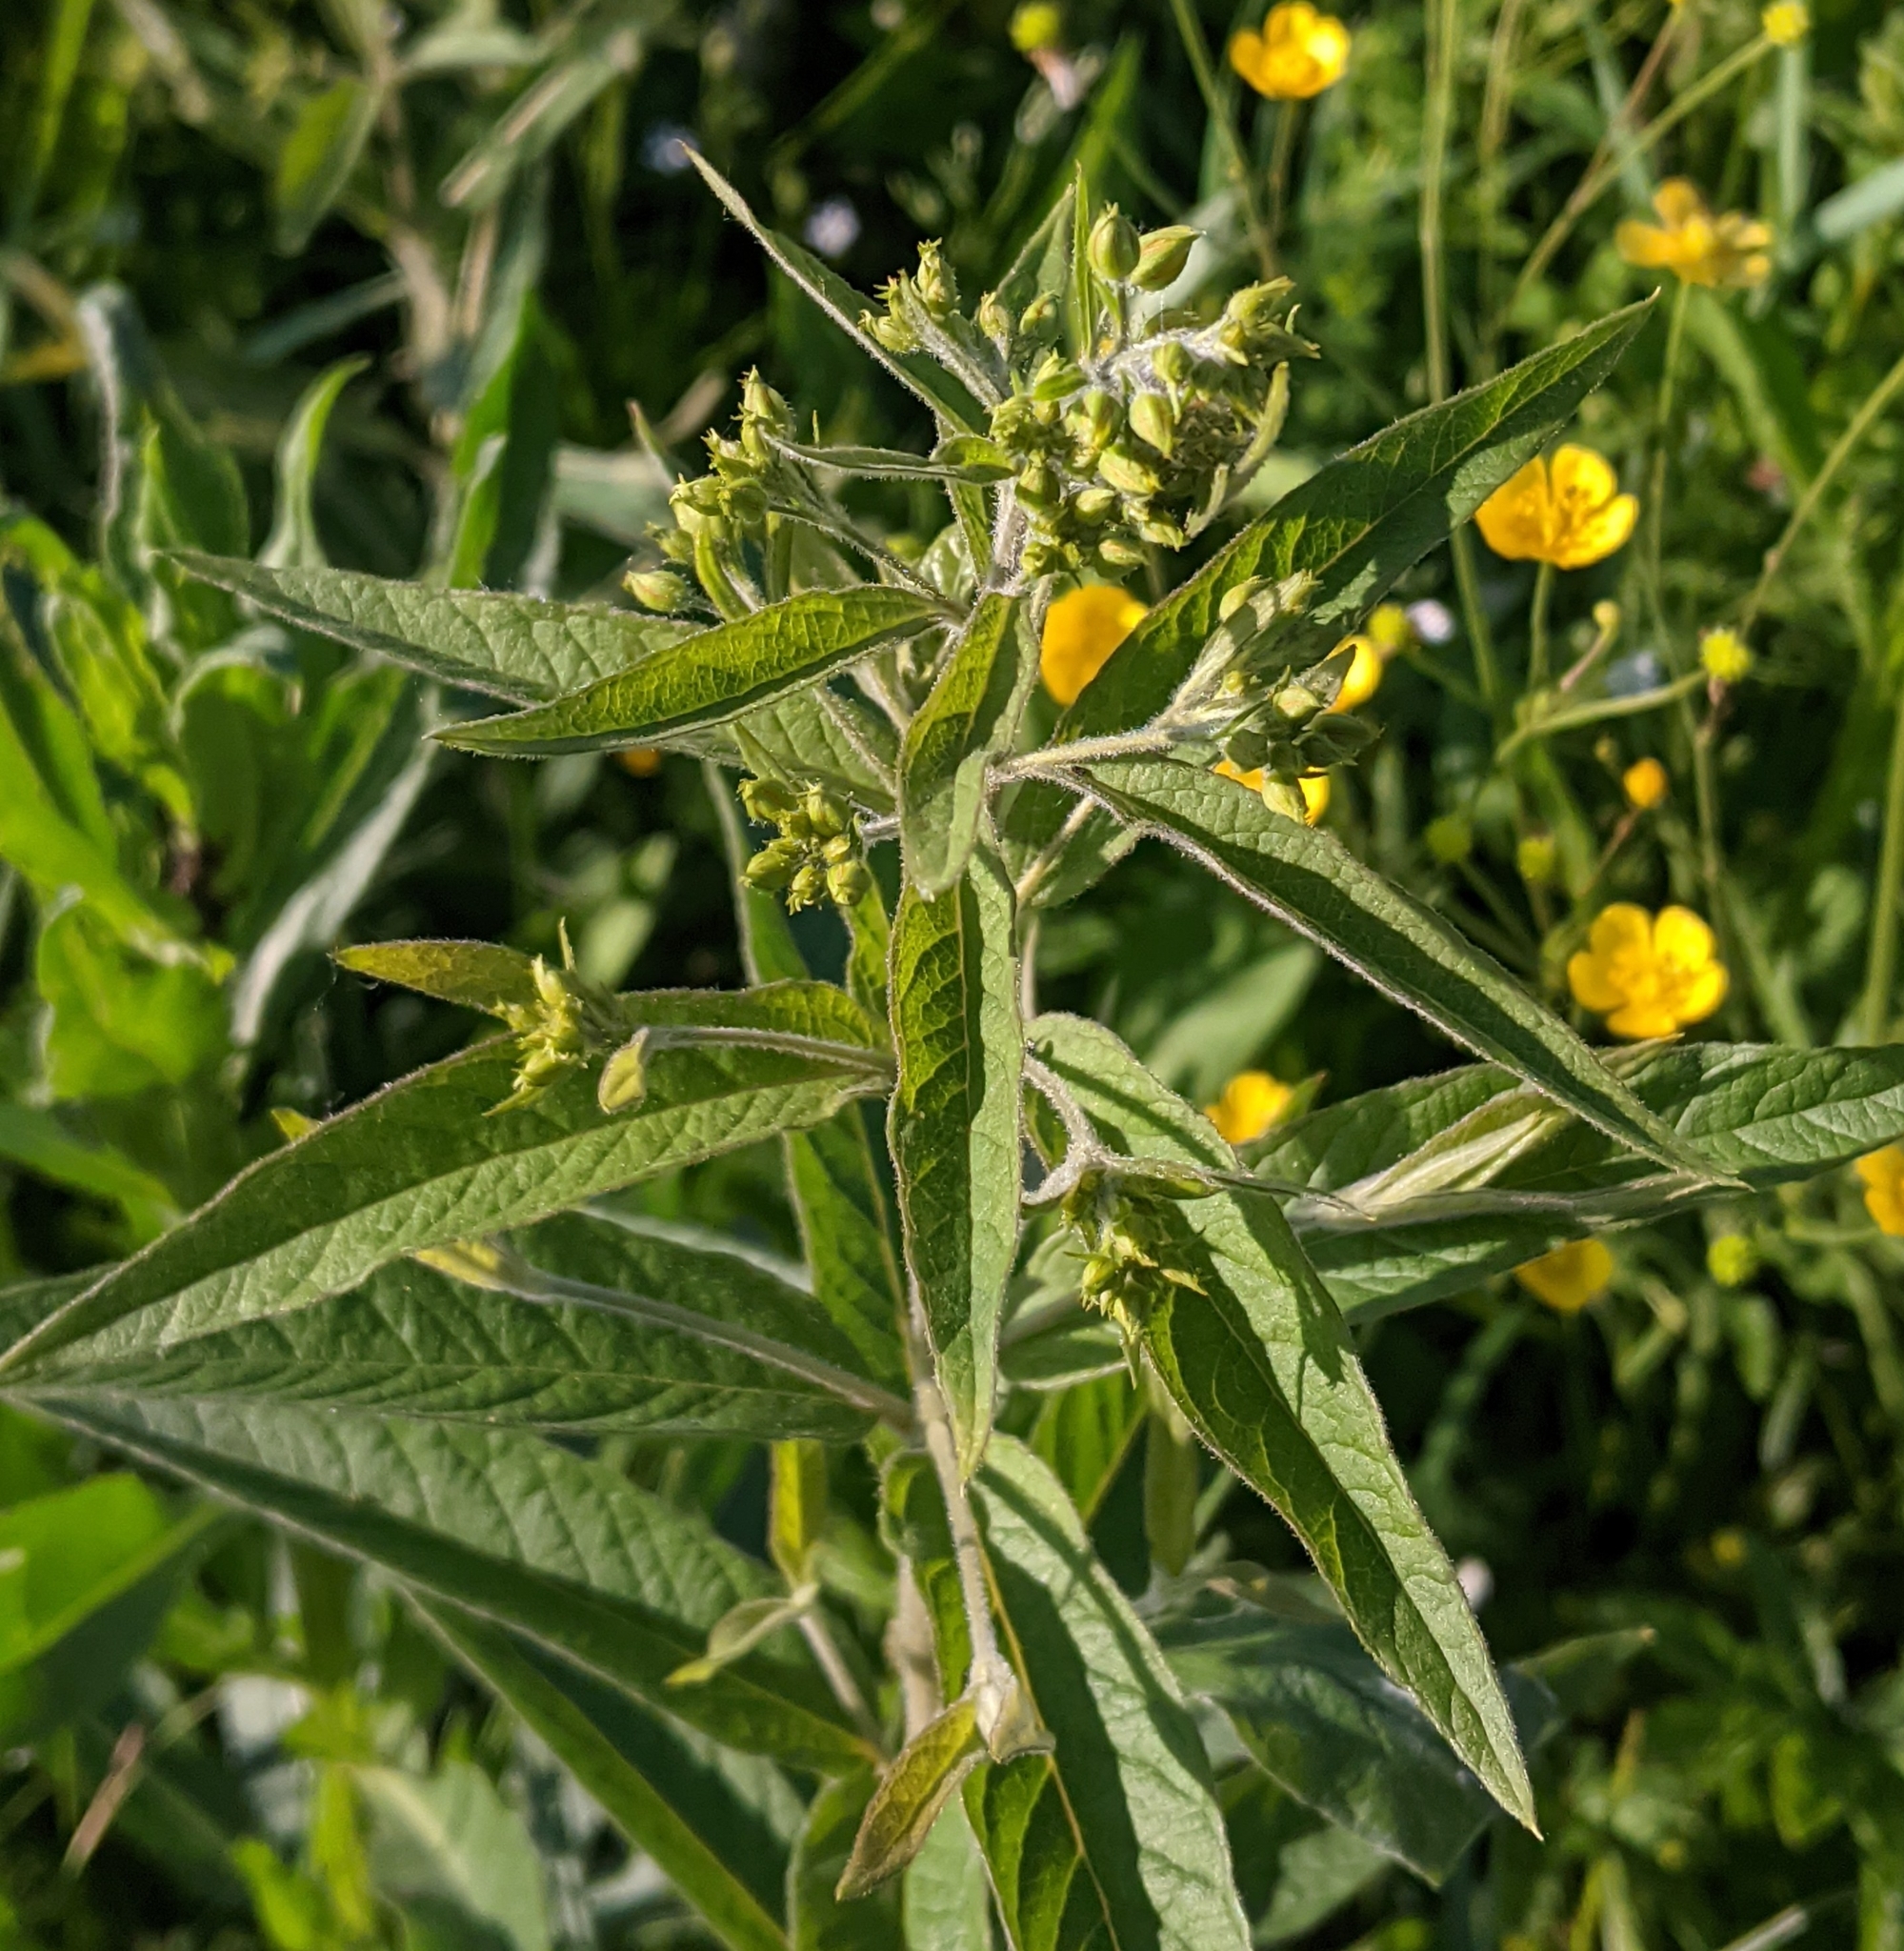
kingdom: Plantae
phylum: Tracheophyta
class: Magnoliopsida
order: Ericales
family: Primulaceae
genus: Lysimachia
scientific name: Lysimachia vulgaris
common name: Yellow loosestrife
